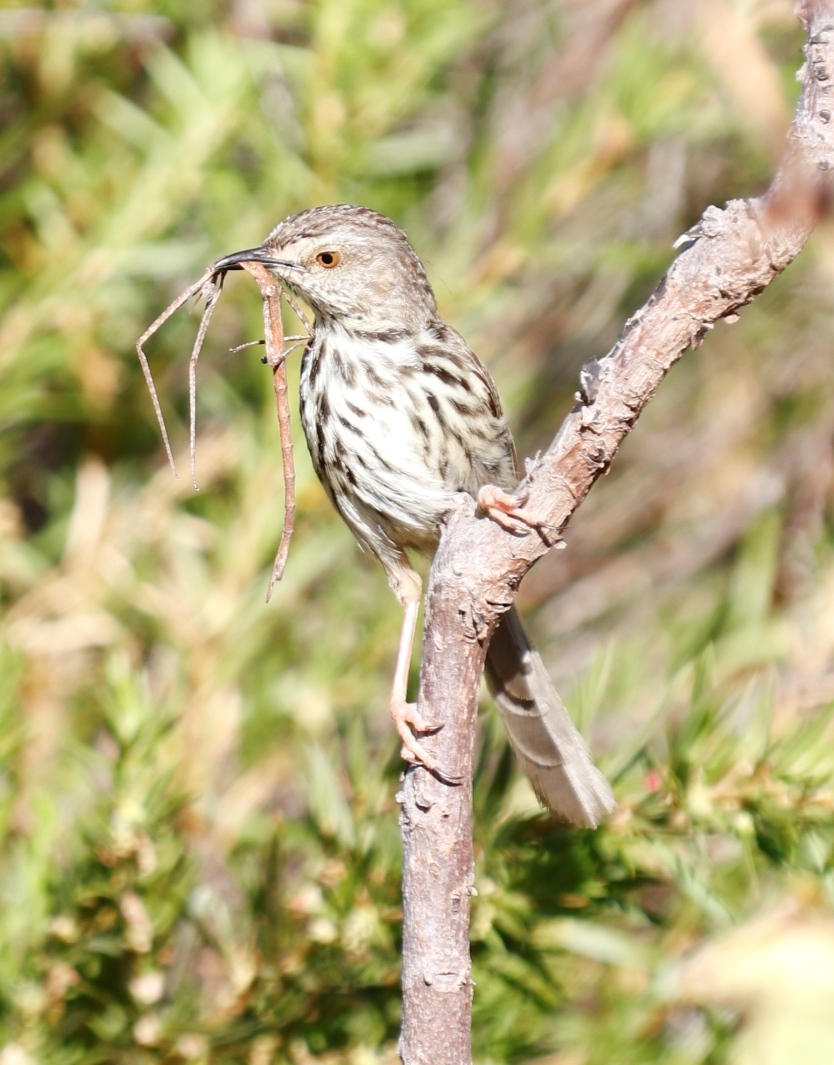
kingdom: Animalia
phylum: Arthropoda
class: Insecta
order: Phasmida
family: Bacillidae
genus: Phalces
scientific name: Phalces brevis
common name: Cape stick insect
